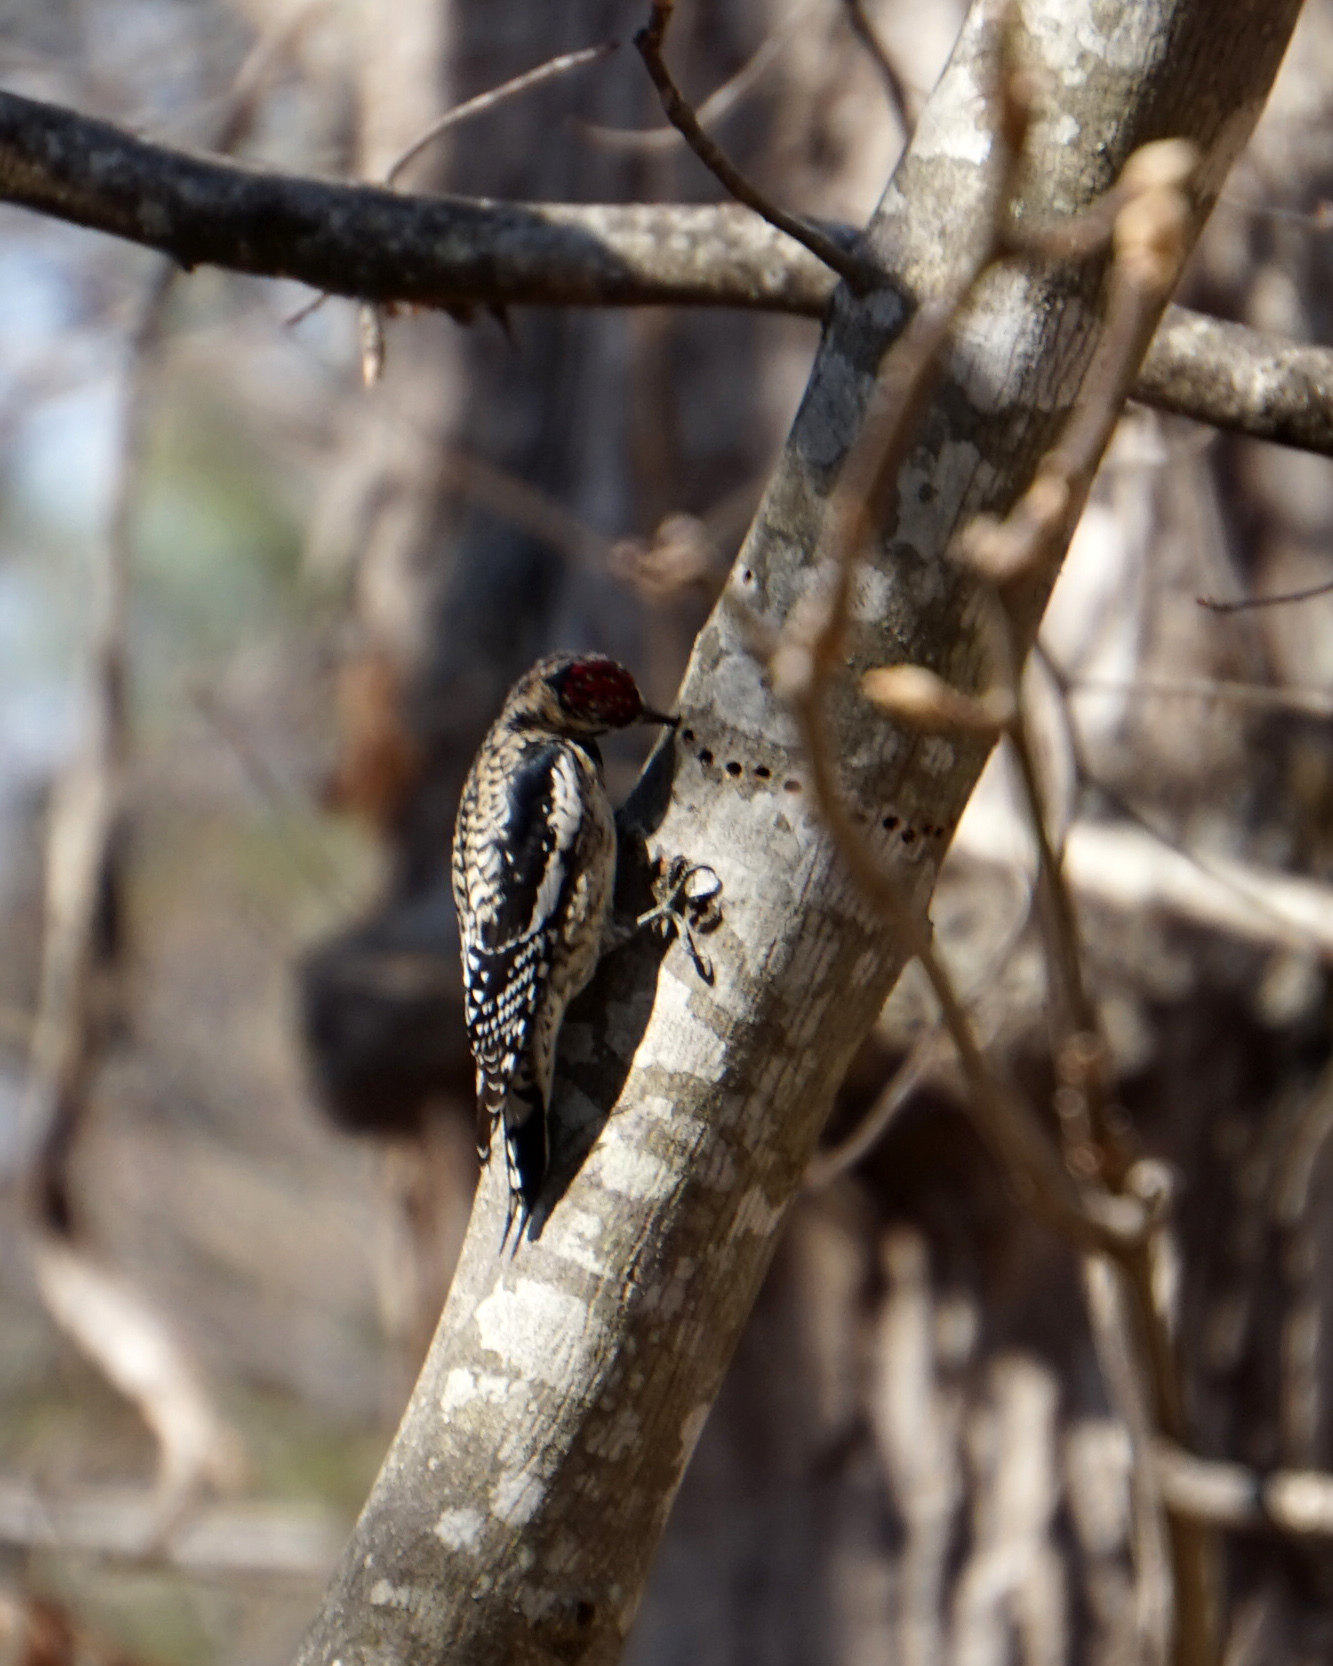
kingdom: Animalia
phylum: Chordata
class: Aves
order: Piciformes
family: Picidae
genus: Sphyrapicus
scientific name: Sphyrapicus varius
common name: Yellow-bellied sapsucker
